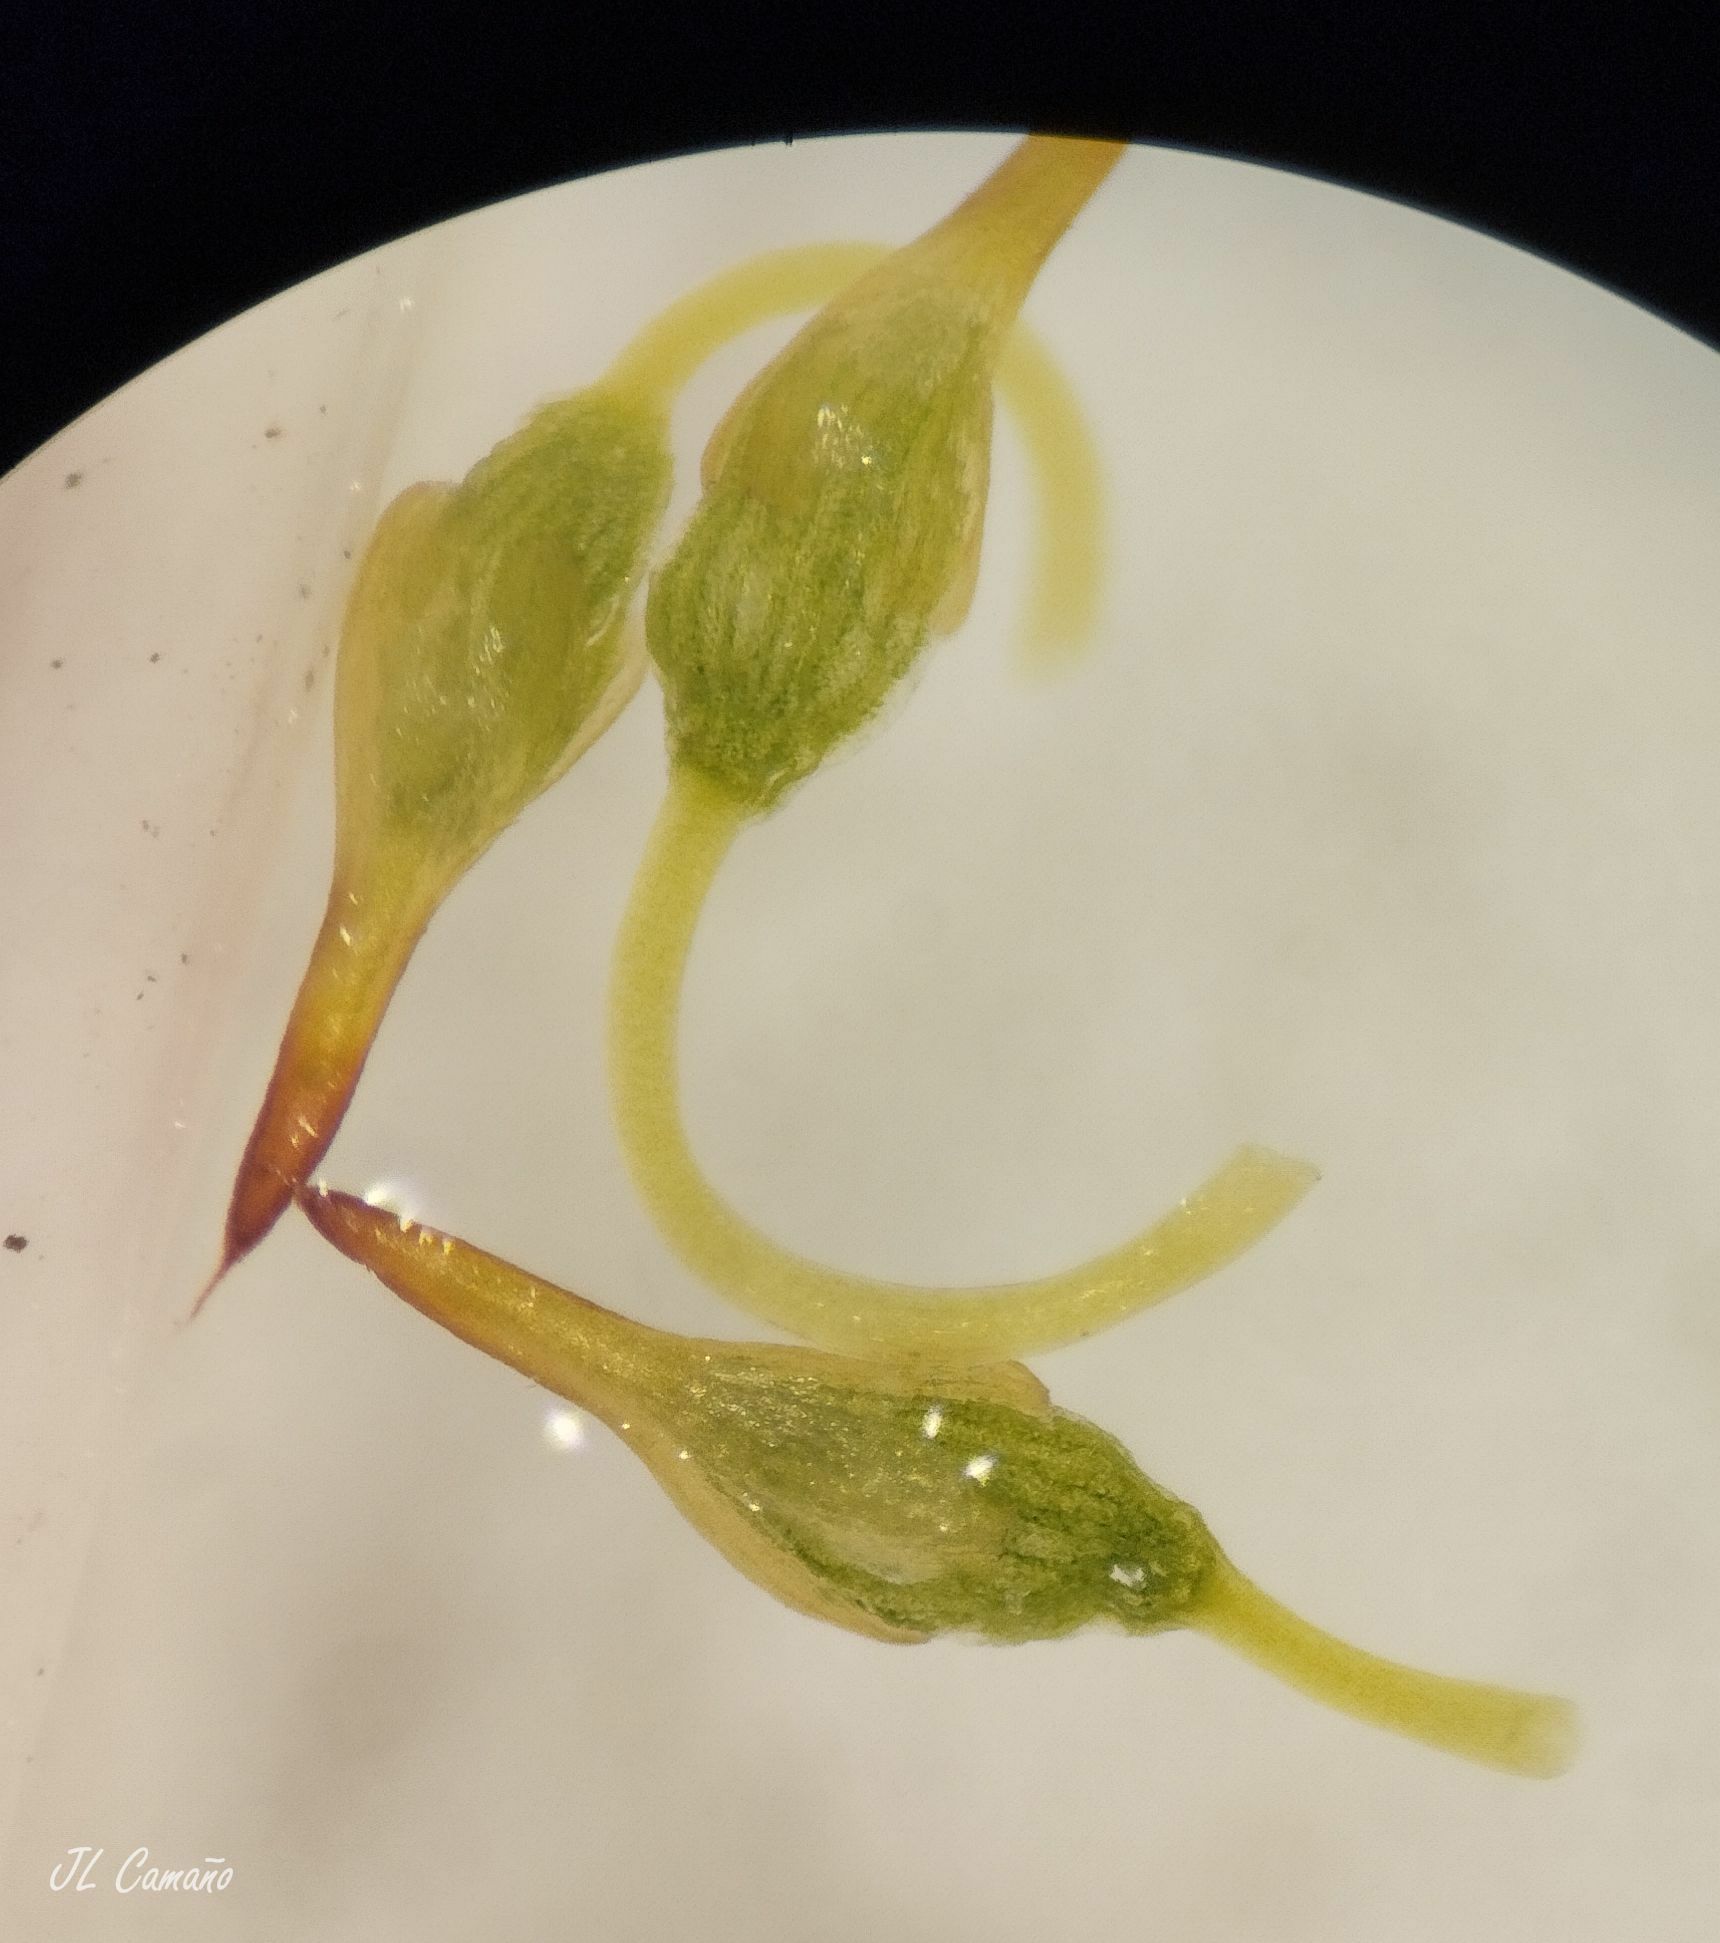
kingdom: Plantae
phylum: Bryophyta
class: Bryopsida
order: Grimmiales
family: Grimmiaceae
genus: Grimmia
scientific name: Grimmia pulvinata
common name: Grey-cushioned grimmia
